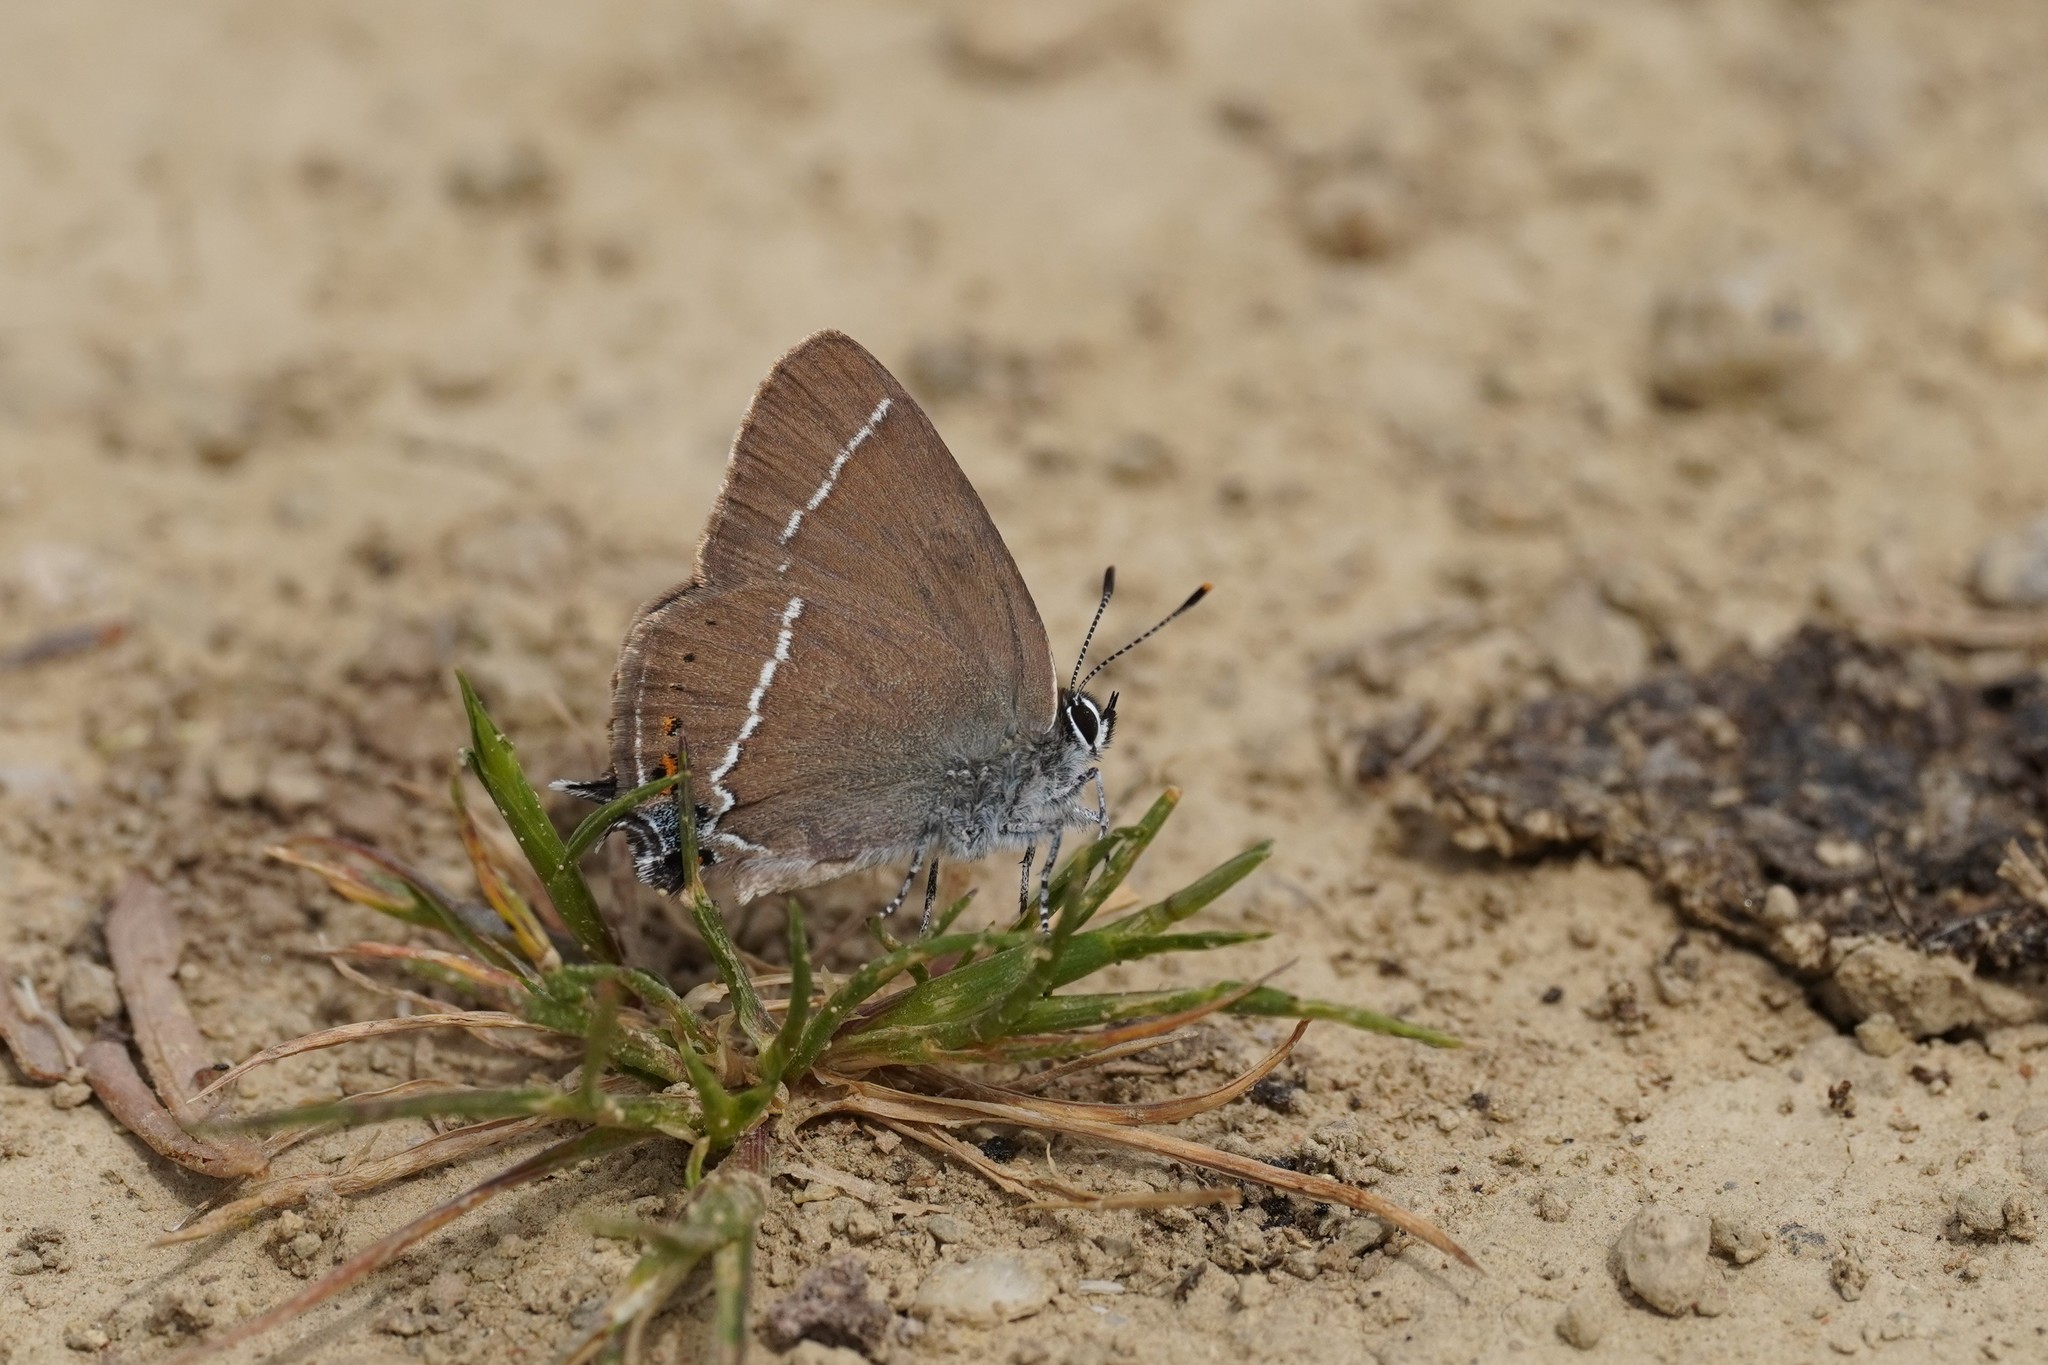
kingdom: Animalia
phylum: Arthropoda
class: Insecta
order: Lepidoptera
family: Lycaenidae
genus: Tuttiola
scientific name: Tuttiola spini
